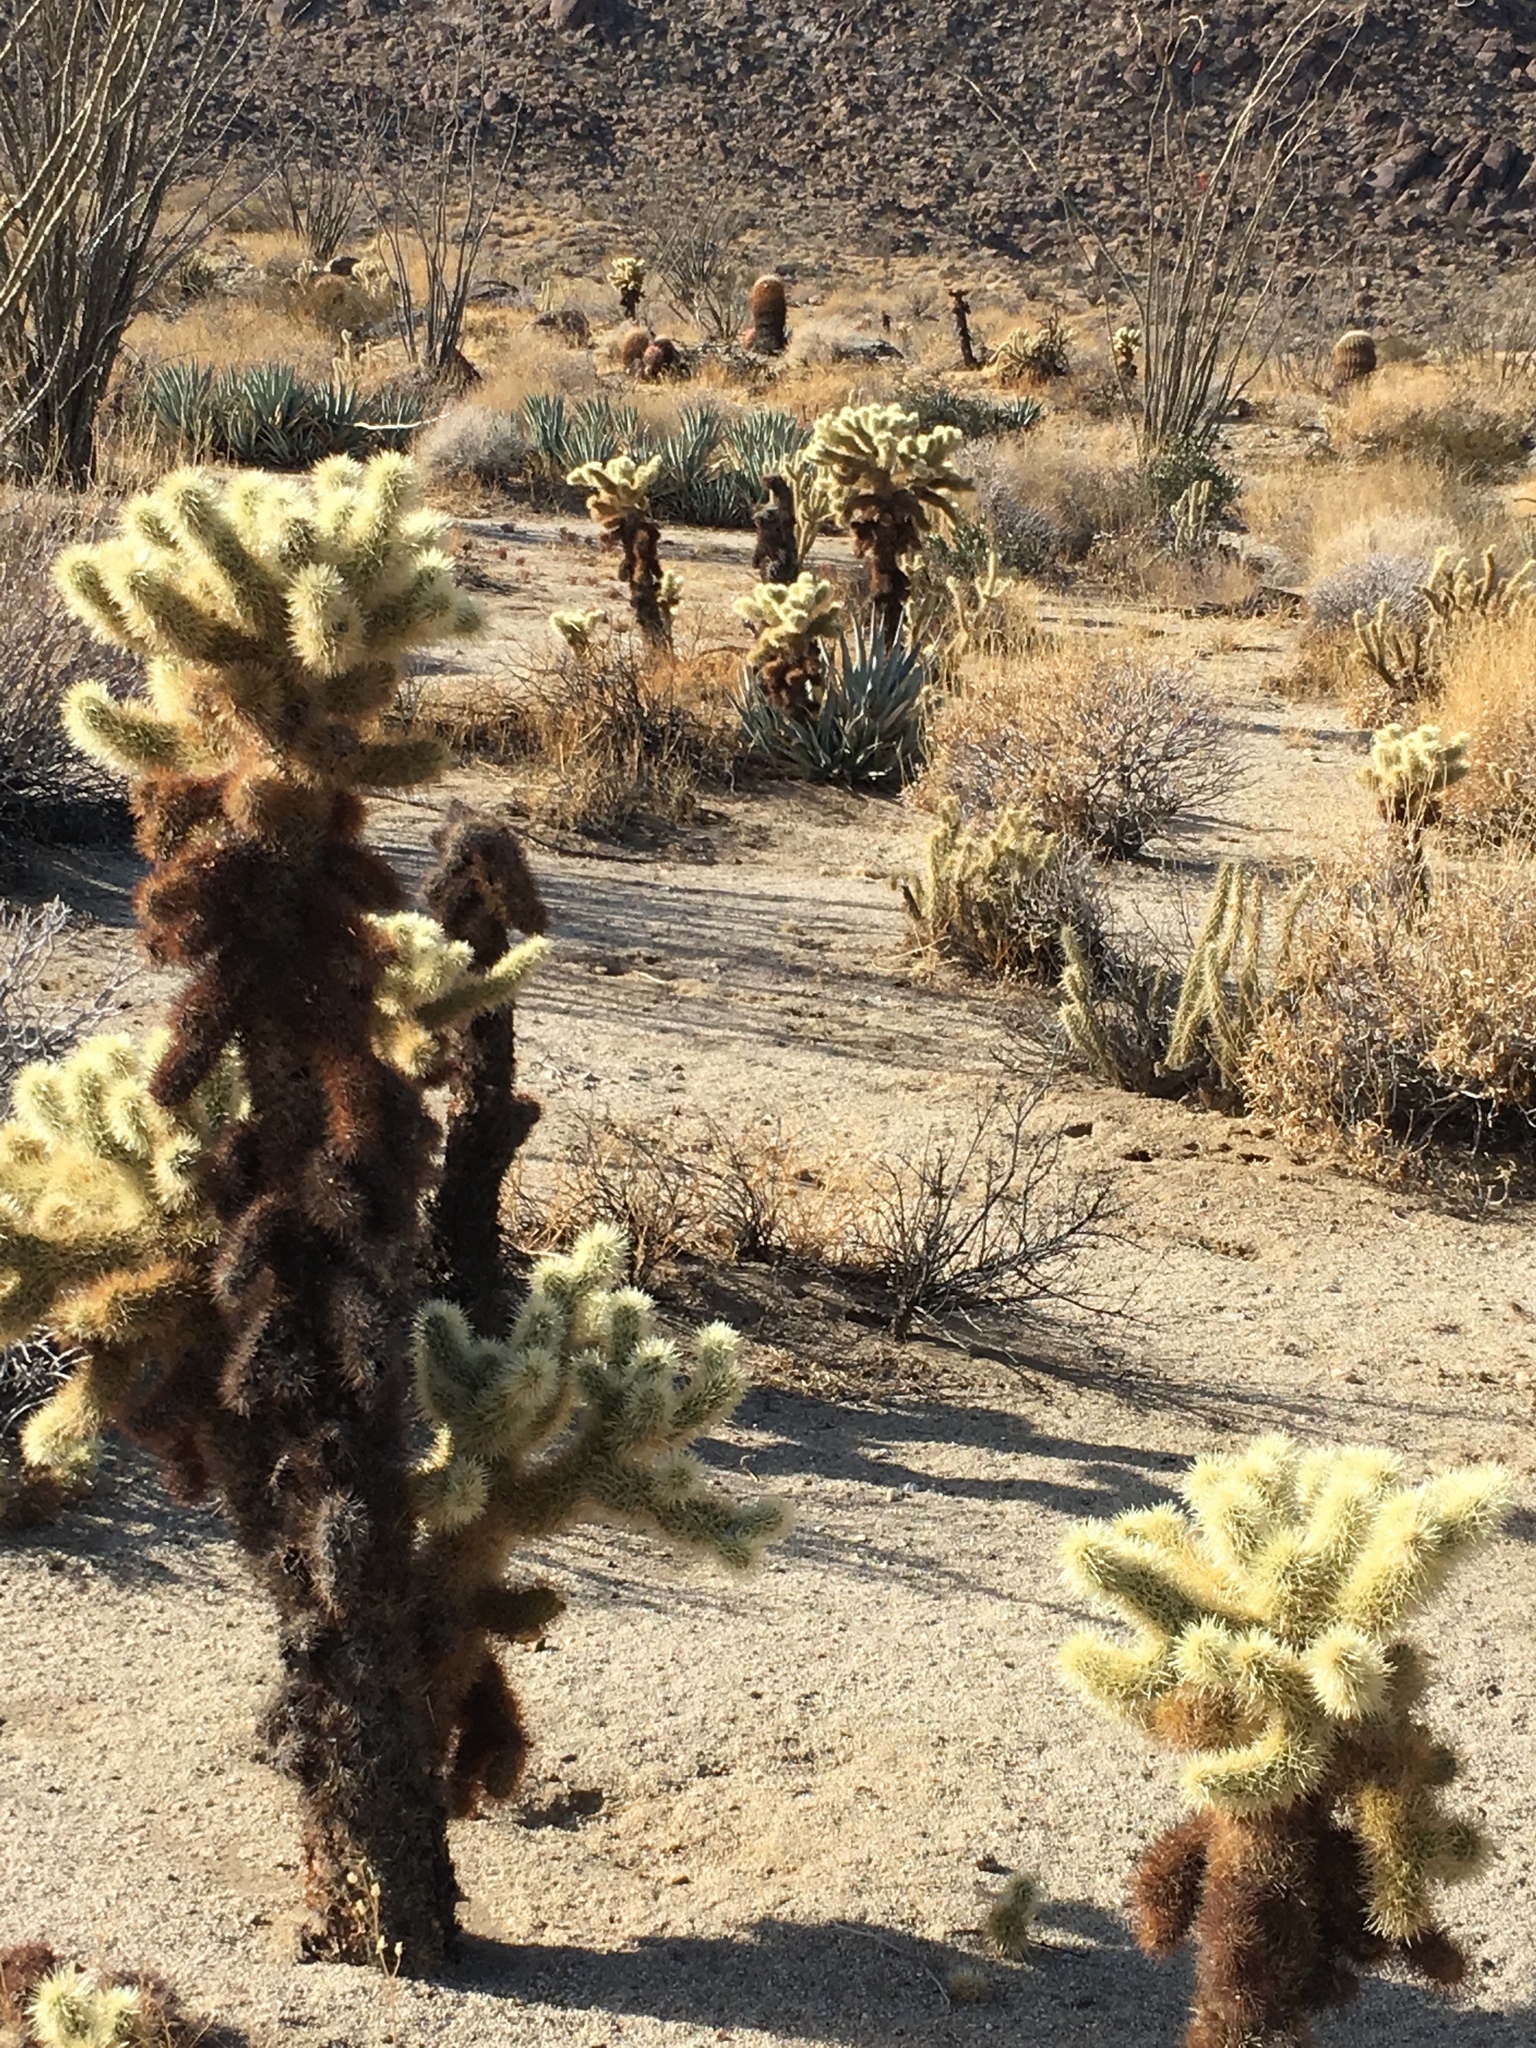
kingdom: Plantae
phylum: Tracheophyta
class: Magnoliopsida
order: Caryophyllales
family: Cactaceae
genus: Cylindropuntia
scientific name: Cylindropuntia fosbergii
